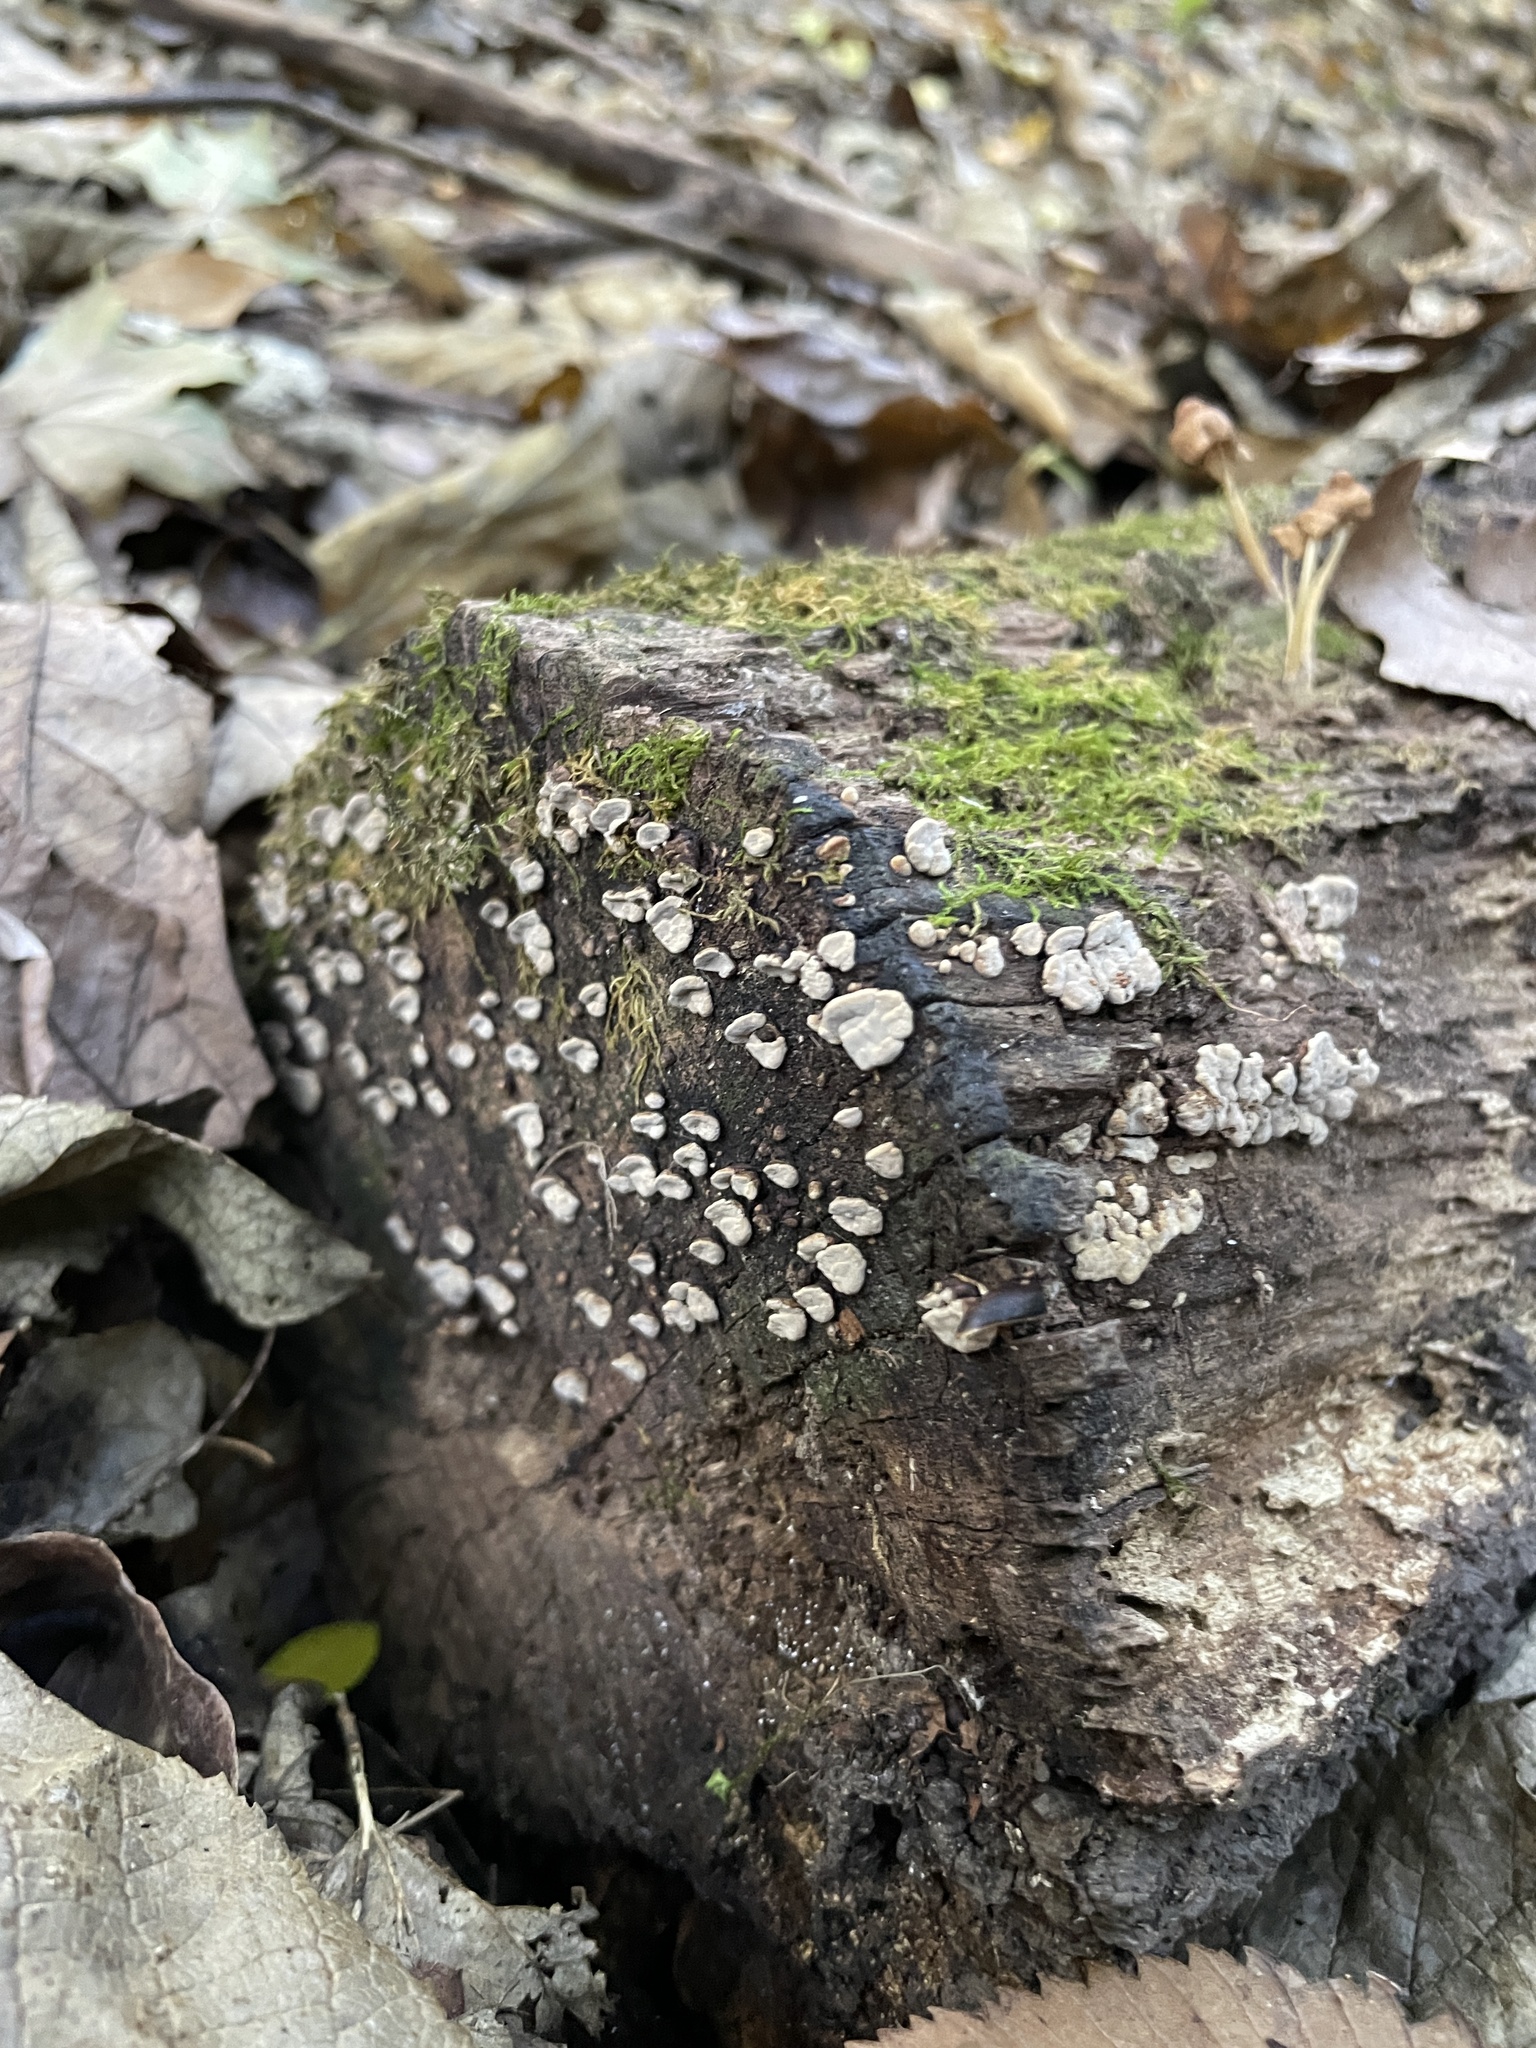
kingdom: Fungi
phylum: Basidiomycota
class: Agaricomycetes
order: Russulales
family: Stereaceae
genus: Xylobolus
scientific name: Xylobolus frustulatus
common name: Ceramic parchment
